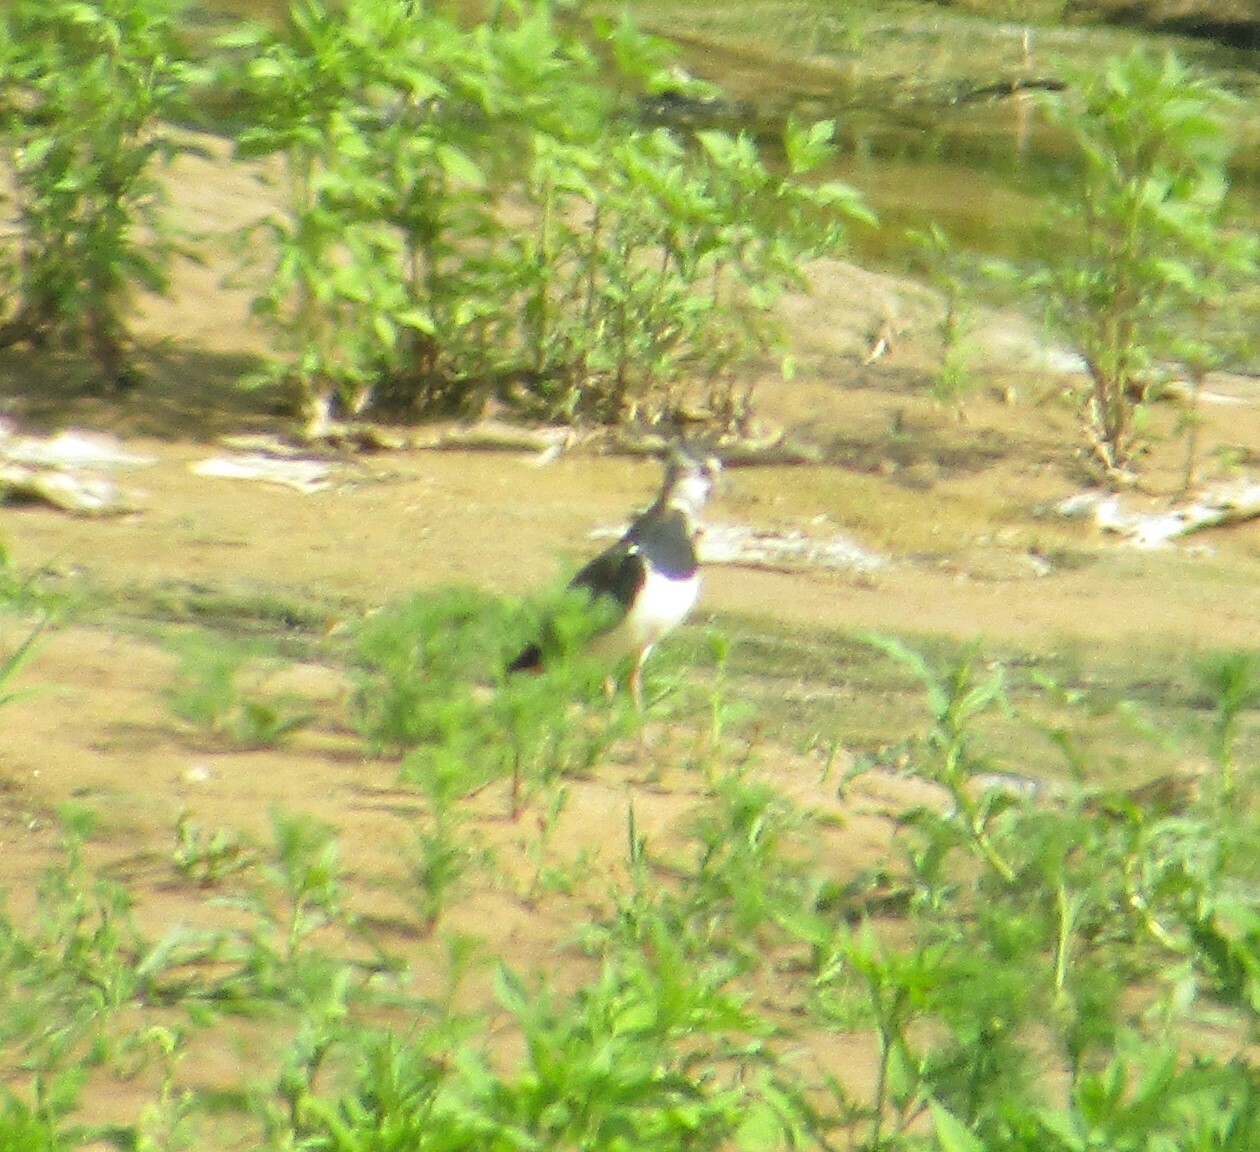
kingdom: Animalia
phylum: Chordata
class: Aves
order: Charadriiformes
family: Charadriidae
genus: Vanellus
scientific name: Vanellus vanellus
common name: Northern lapwing
